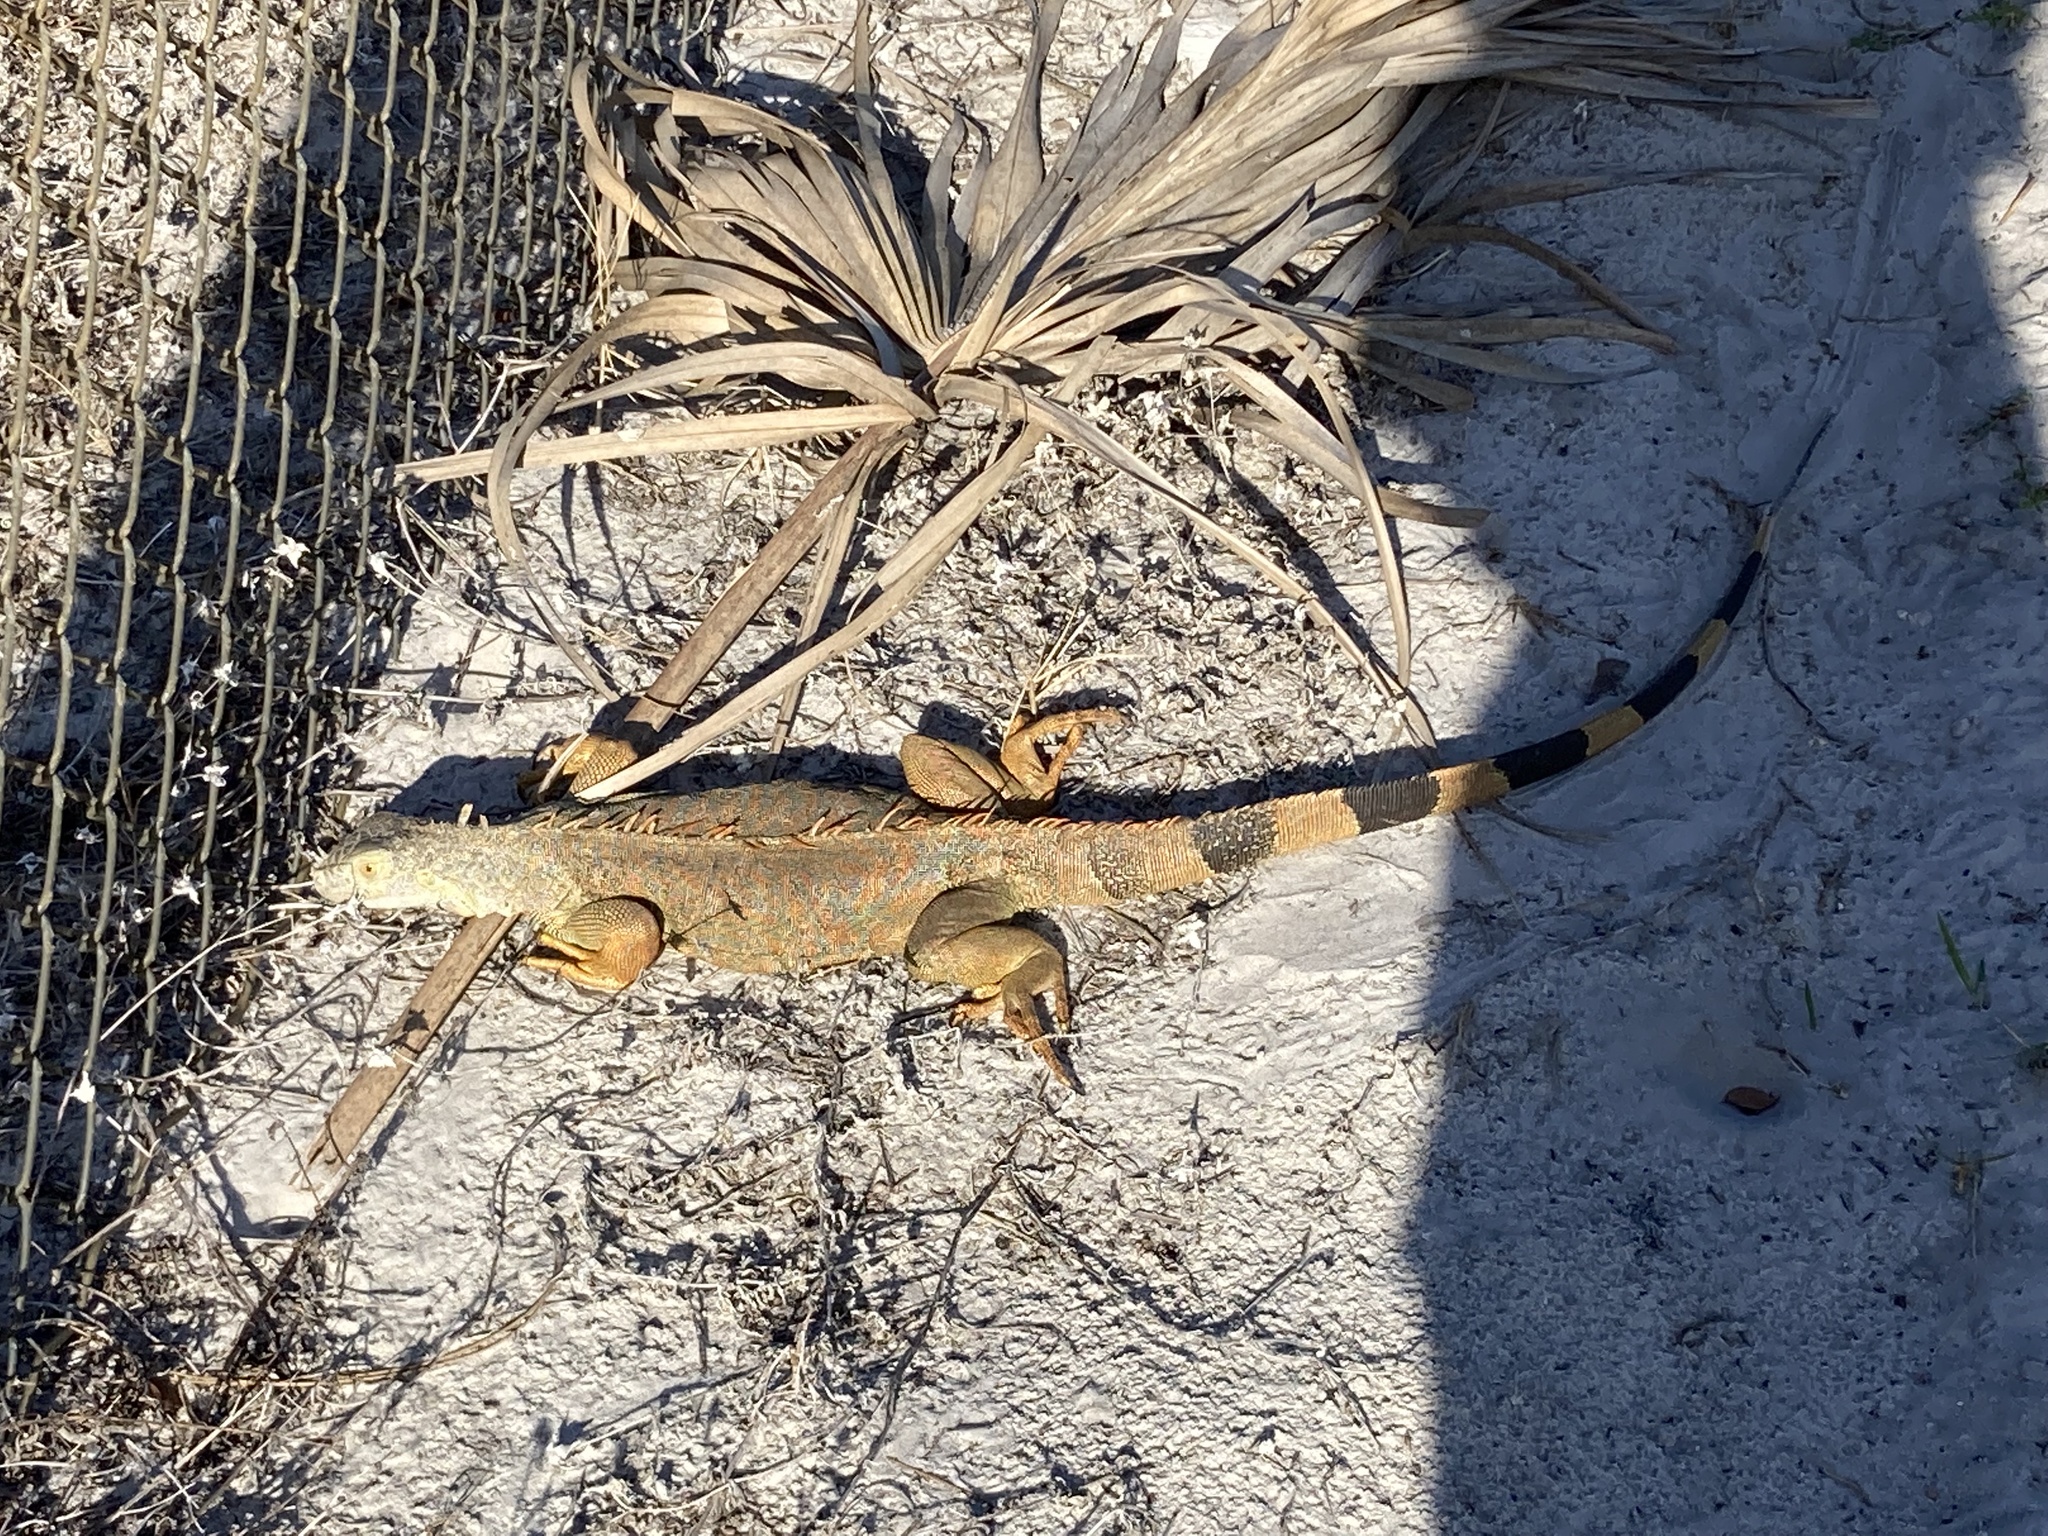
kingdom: Animalia
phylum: Chordata
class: Squamata
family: Iguanidae
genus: Iguana
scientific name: Iguana iguana
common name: Green iguana
